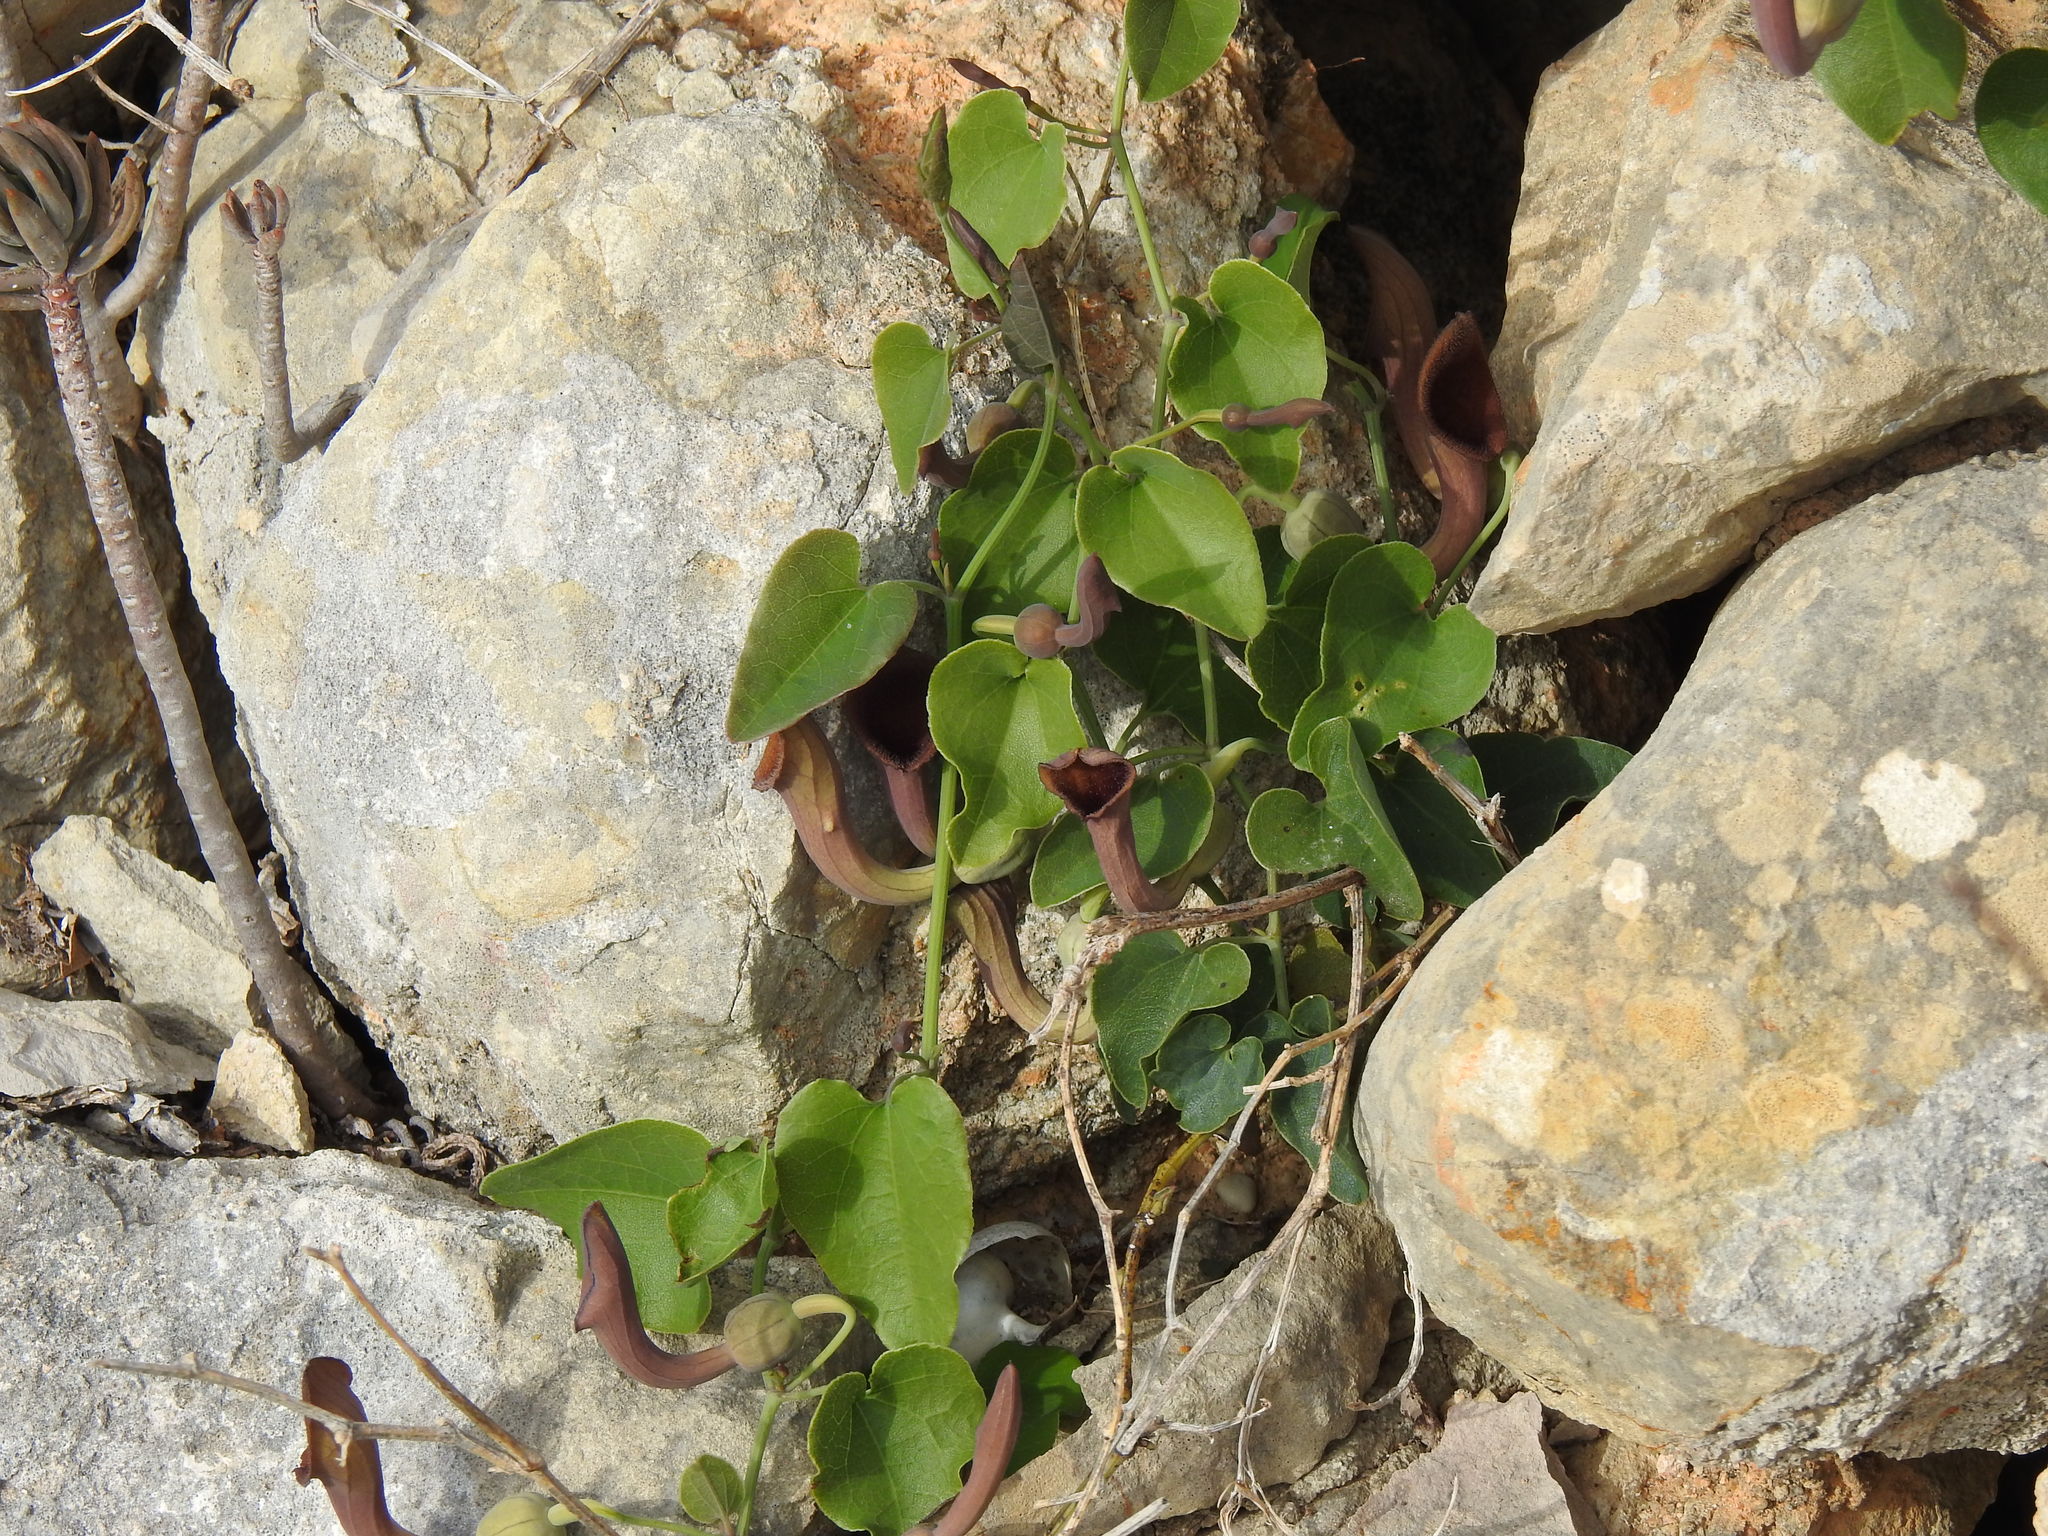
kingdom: Plantae
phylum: Tracheophyta
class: Magnoliopsida
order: Piperales
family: Aristolochiaceae
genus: Aristolochia
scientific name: Aristolochia baetica
